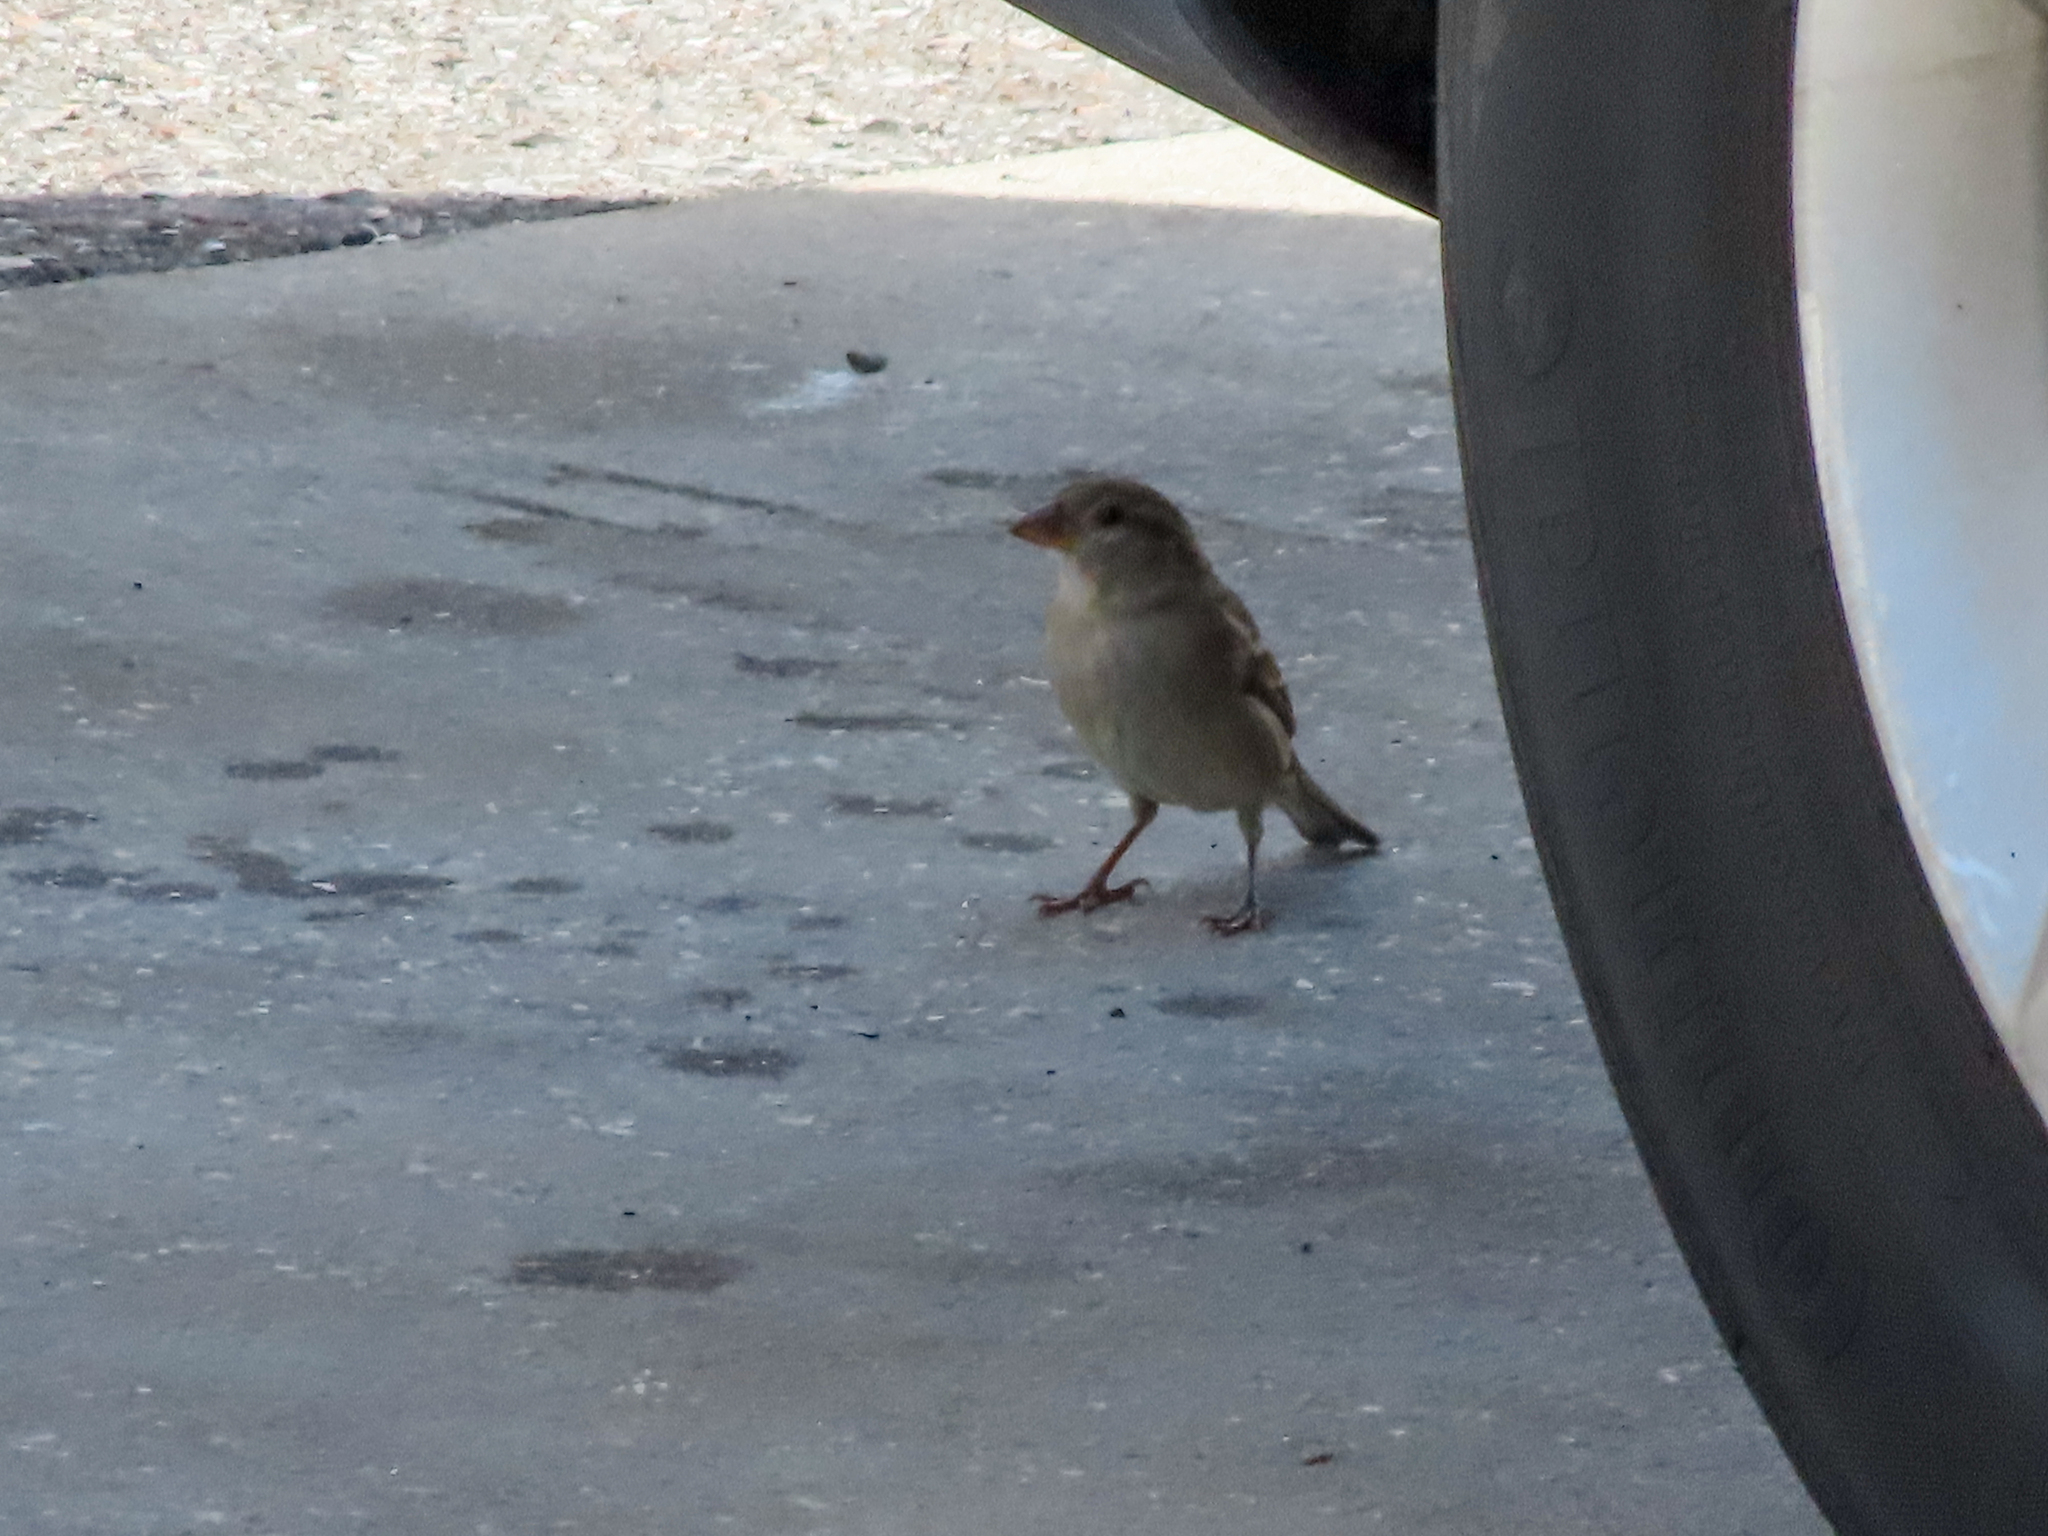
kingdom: Animalia
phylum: Chordata
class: Aves
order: Passeriformes
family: Passeridae
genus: Passer
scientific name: Passer domesticus
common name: House sparrow
